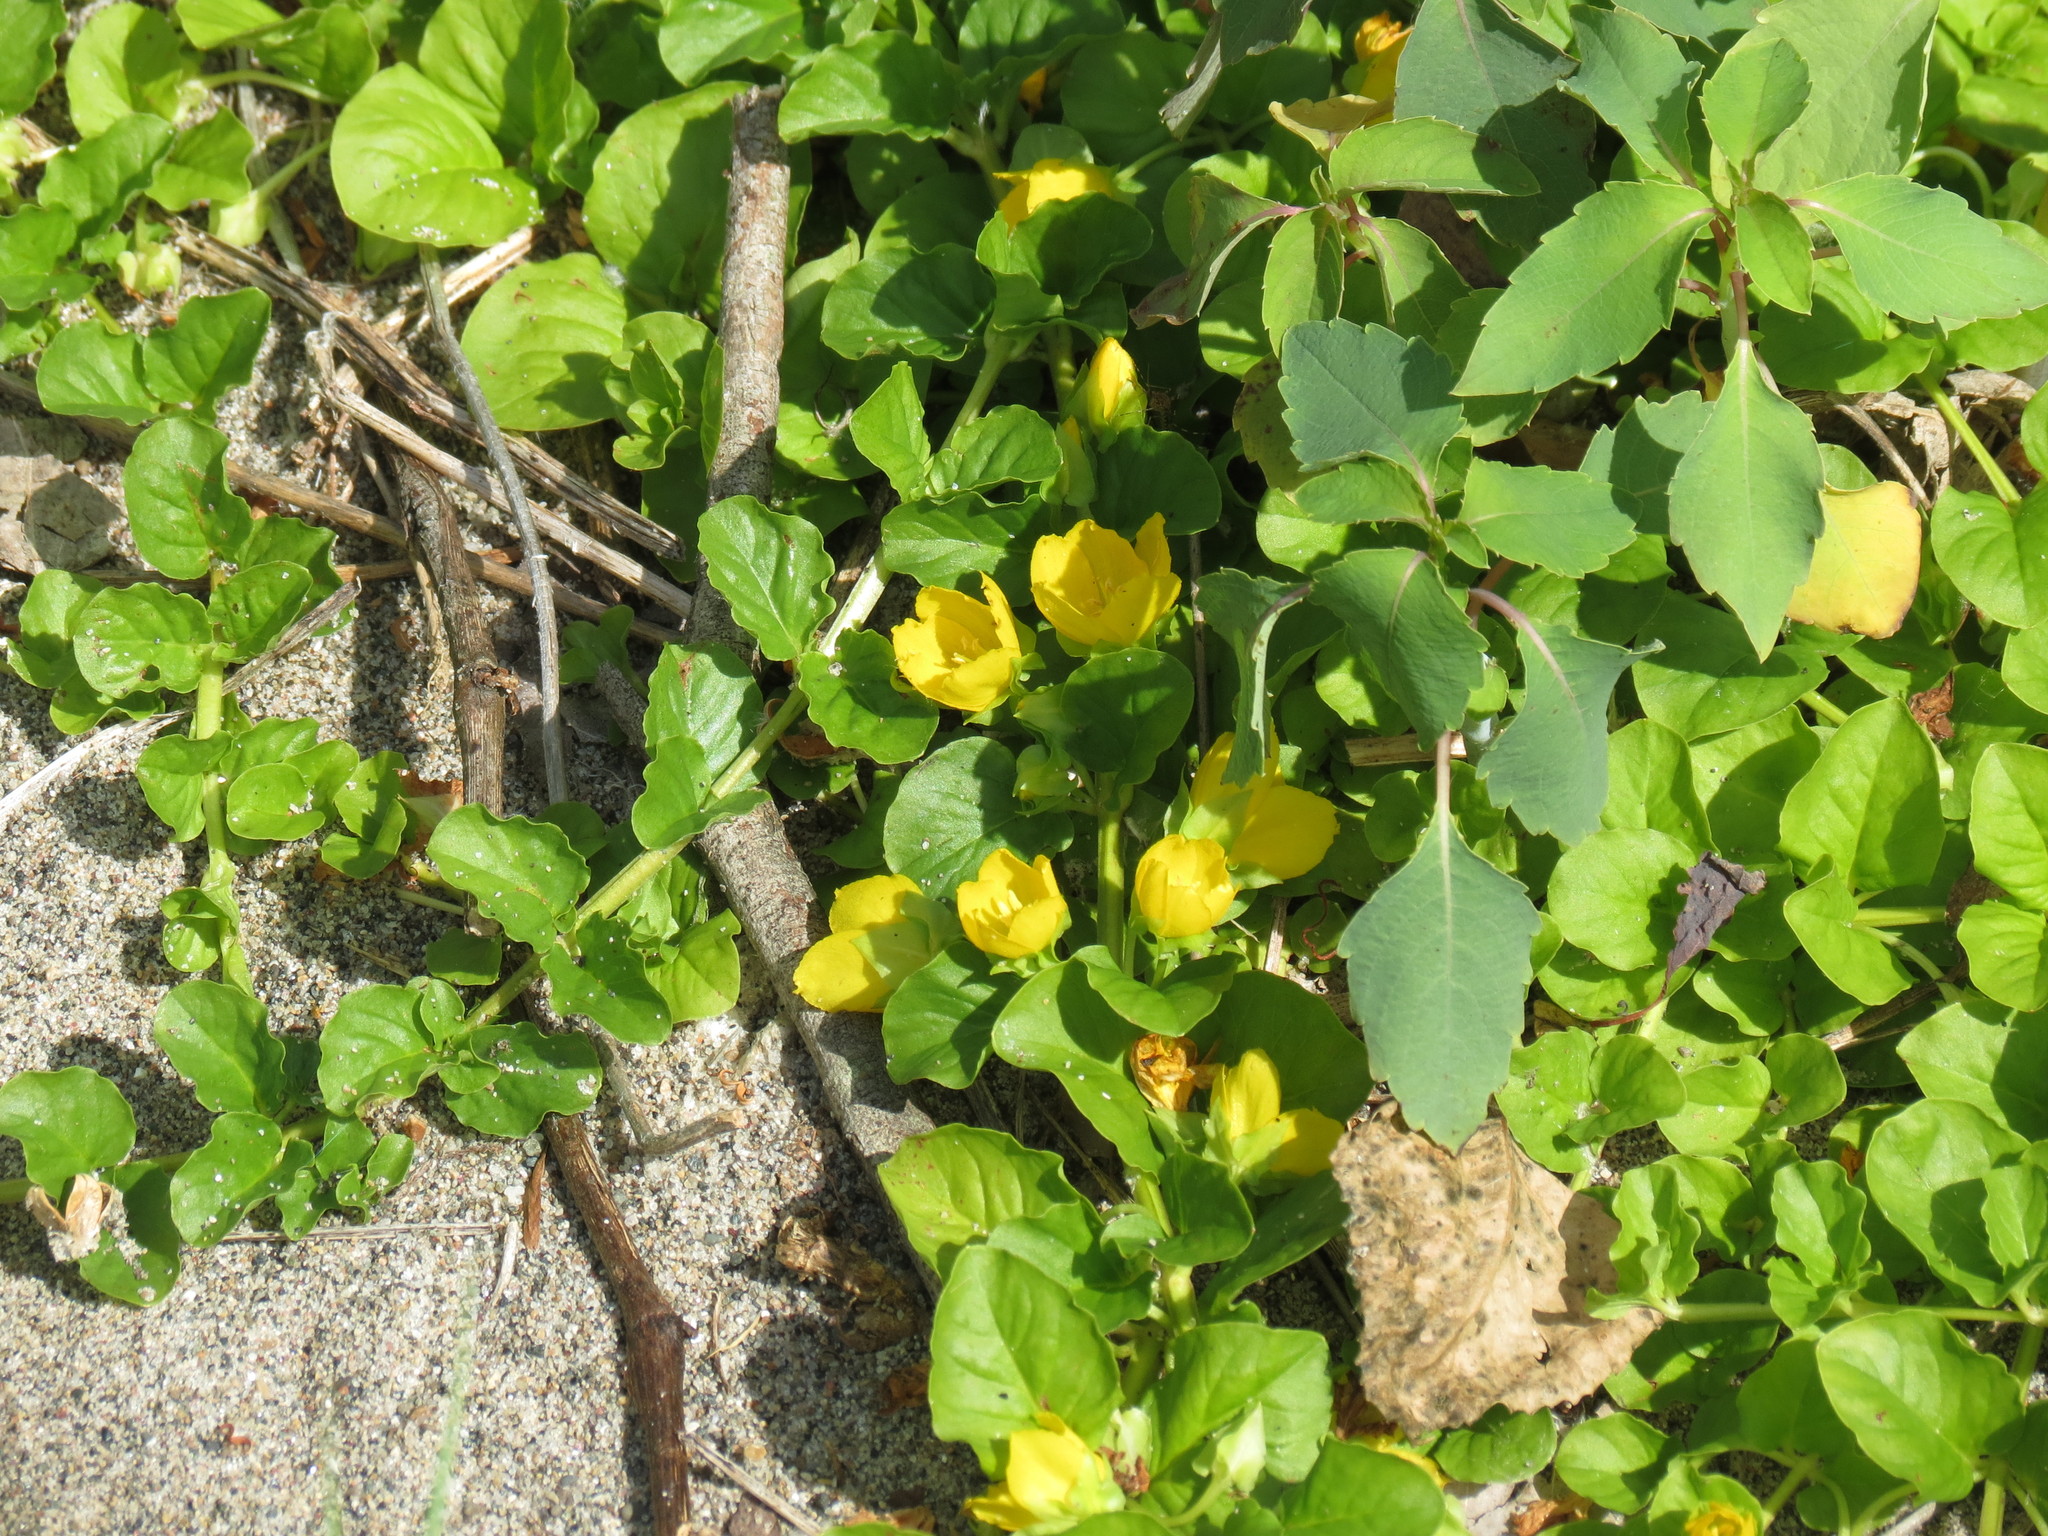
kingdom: Plantae
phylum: Tracheophyta
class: Magnoliopsida
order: Ericales
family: Primulaceae
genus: Lysimachia
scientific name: Lysimachia nummularia
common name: Moneywort
